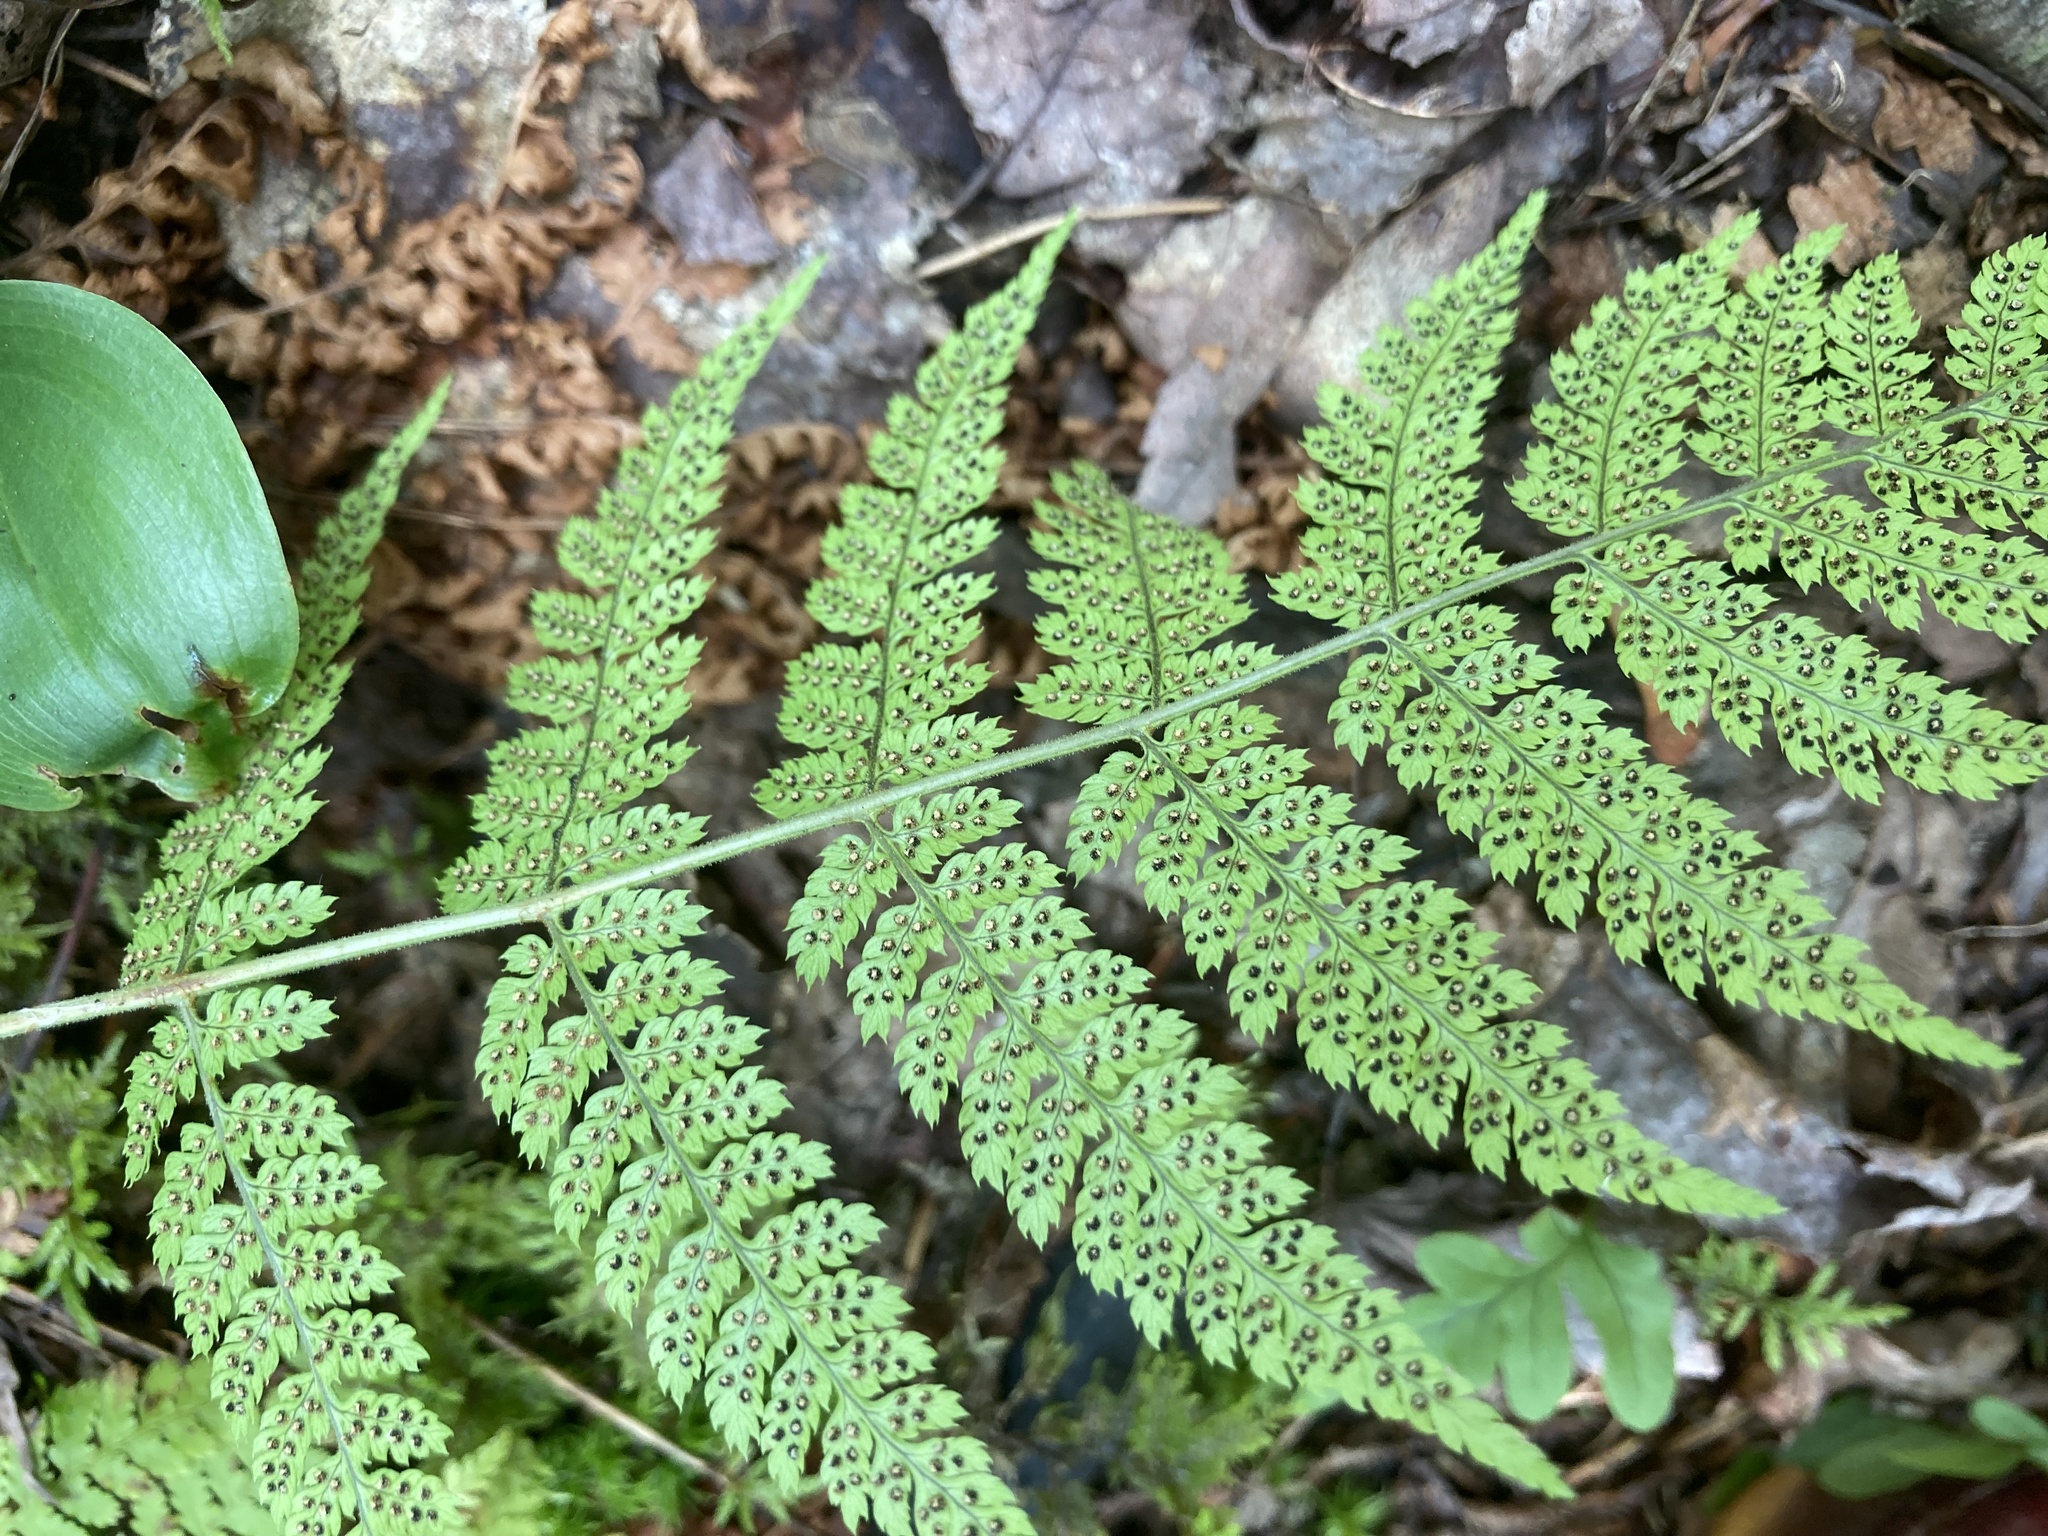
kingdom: Plantae
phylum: Tracheophyta
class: Polypodiopsida
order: Polypodiales
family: Dryopteridaceae
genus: Dryopteris
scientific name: Dryopteris intermedia
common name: Evergreen wood fern
